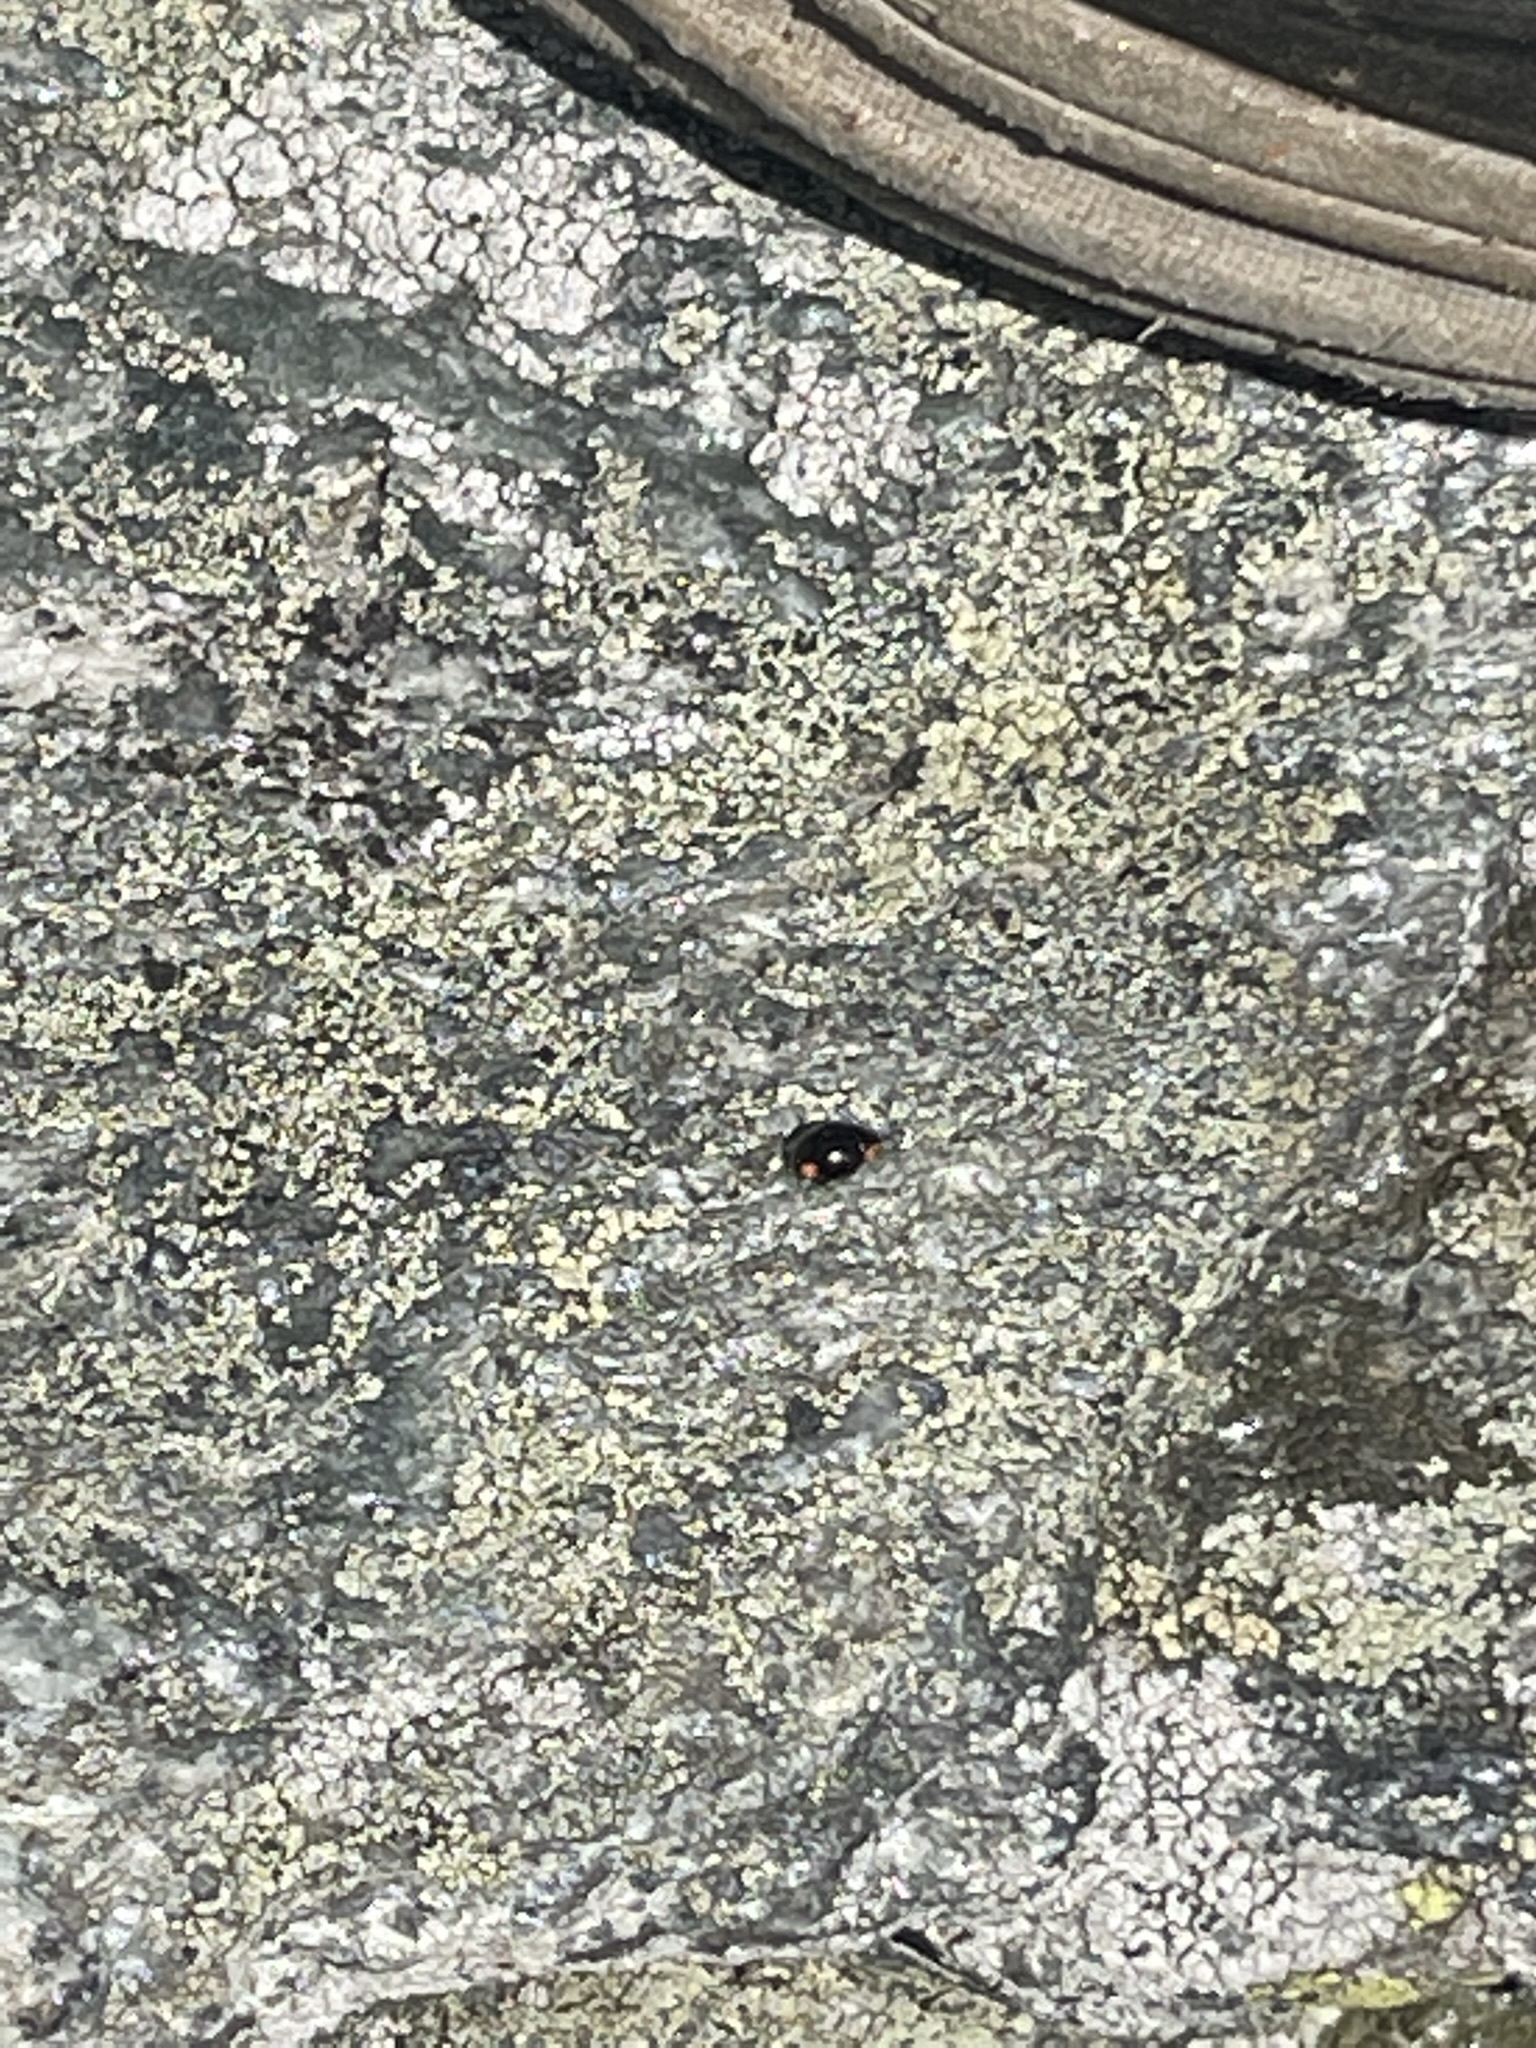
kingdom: Animalia
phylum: Arthropoda
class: Insecta
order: Coleoptera
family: Coccinellidae
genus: Hyperaspis
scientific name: Hyperaspis bigeminata
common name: Bigeminate sigil lady beetle
